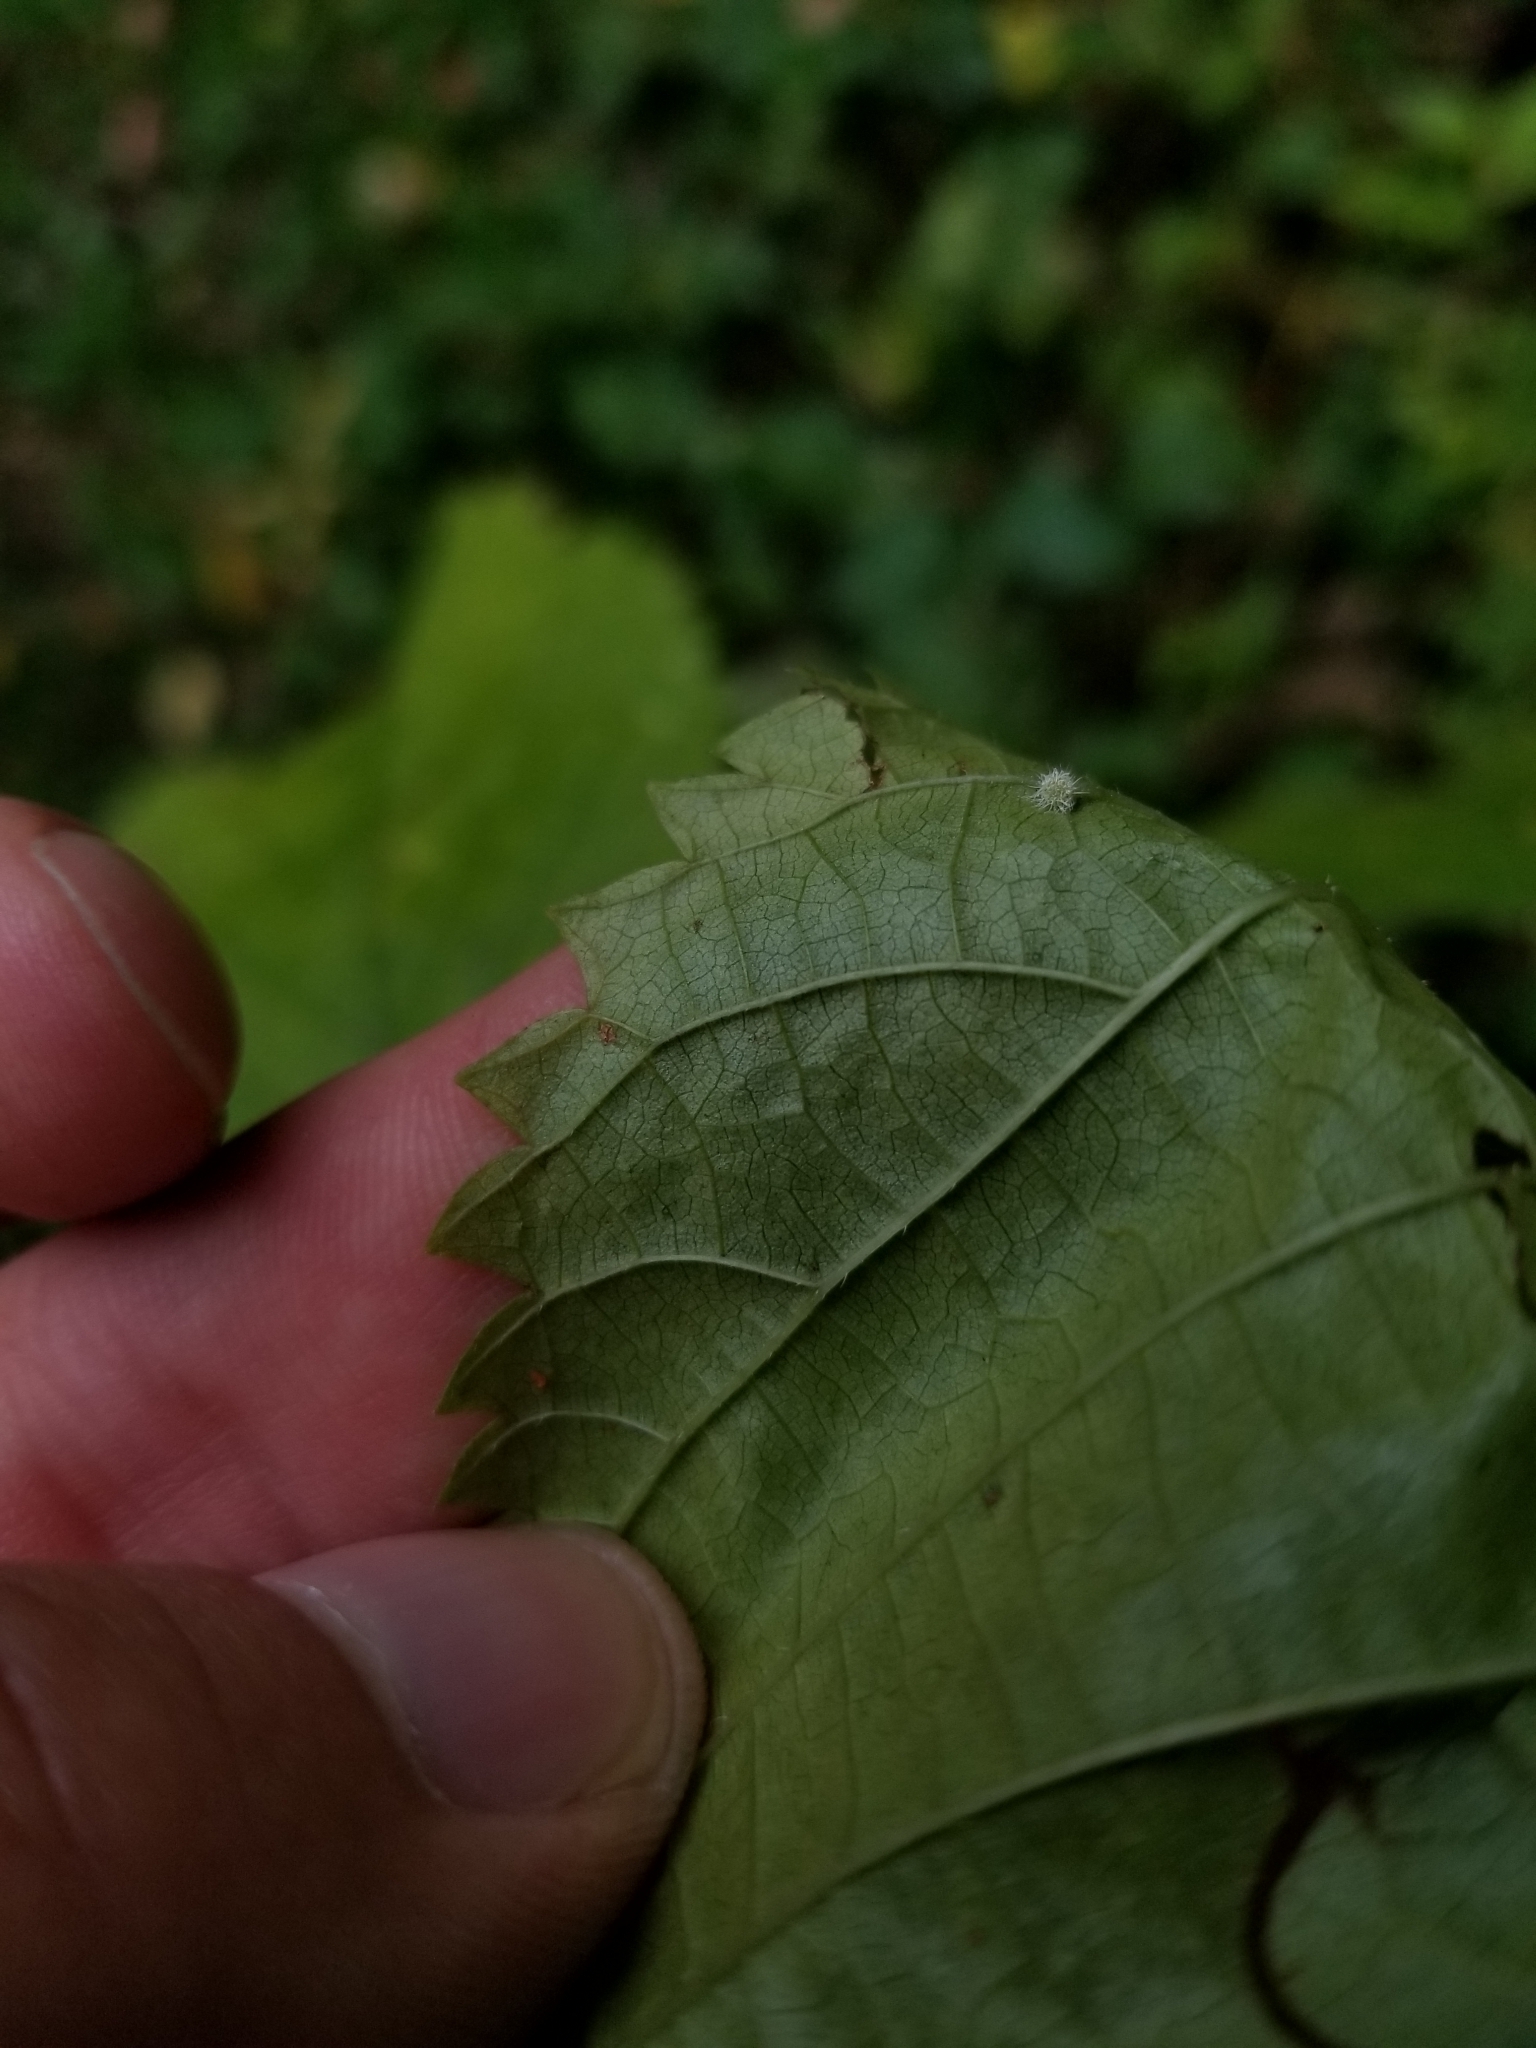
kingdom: Animalia
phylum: Arthropoda
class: Insecta
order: Diptera
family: Cecidomyiidae
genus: Dasineura
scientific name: Dasineura pilosa
